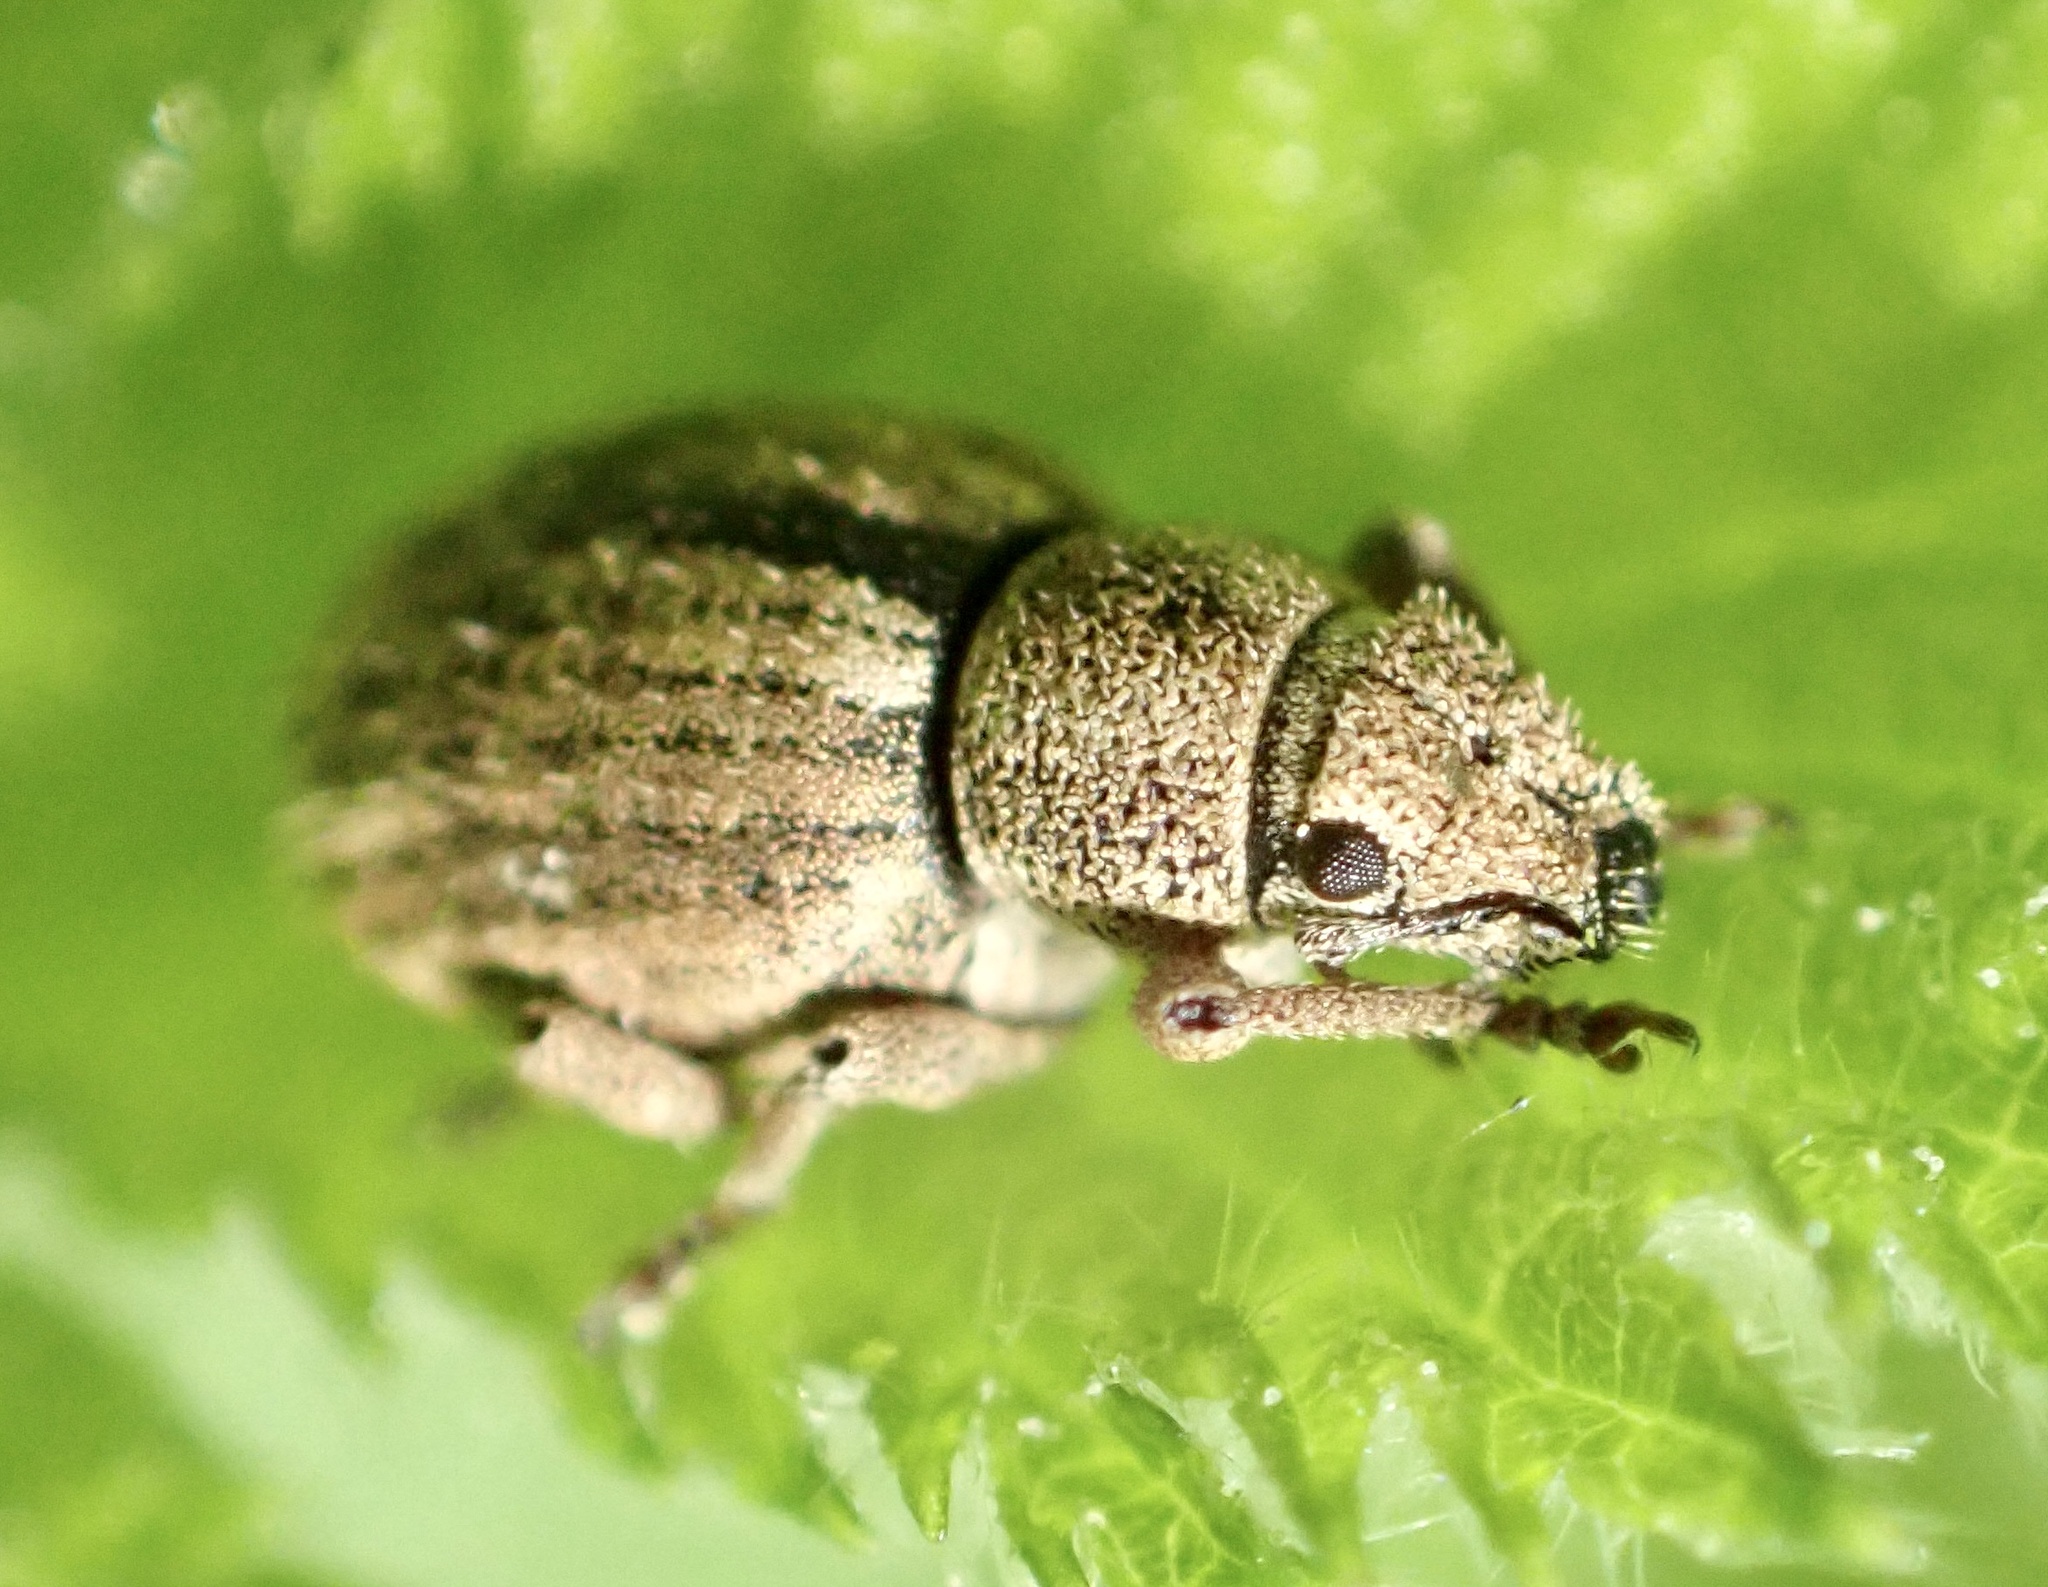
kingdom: Animalia
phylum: Arthropoda
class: Insecta
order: Coleoptera
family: Curculionidae
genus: Strophosoma
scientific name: Strophosoma melanogrammum
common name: Weevil
